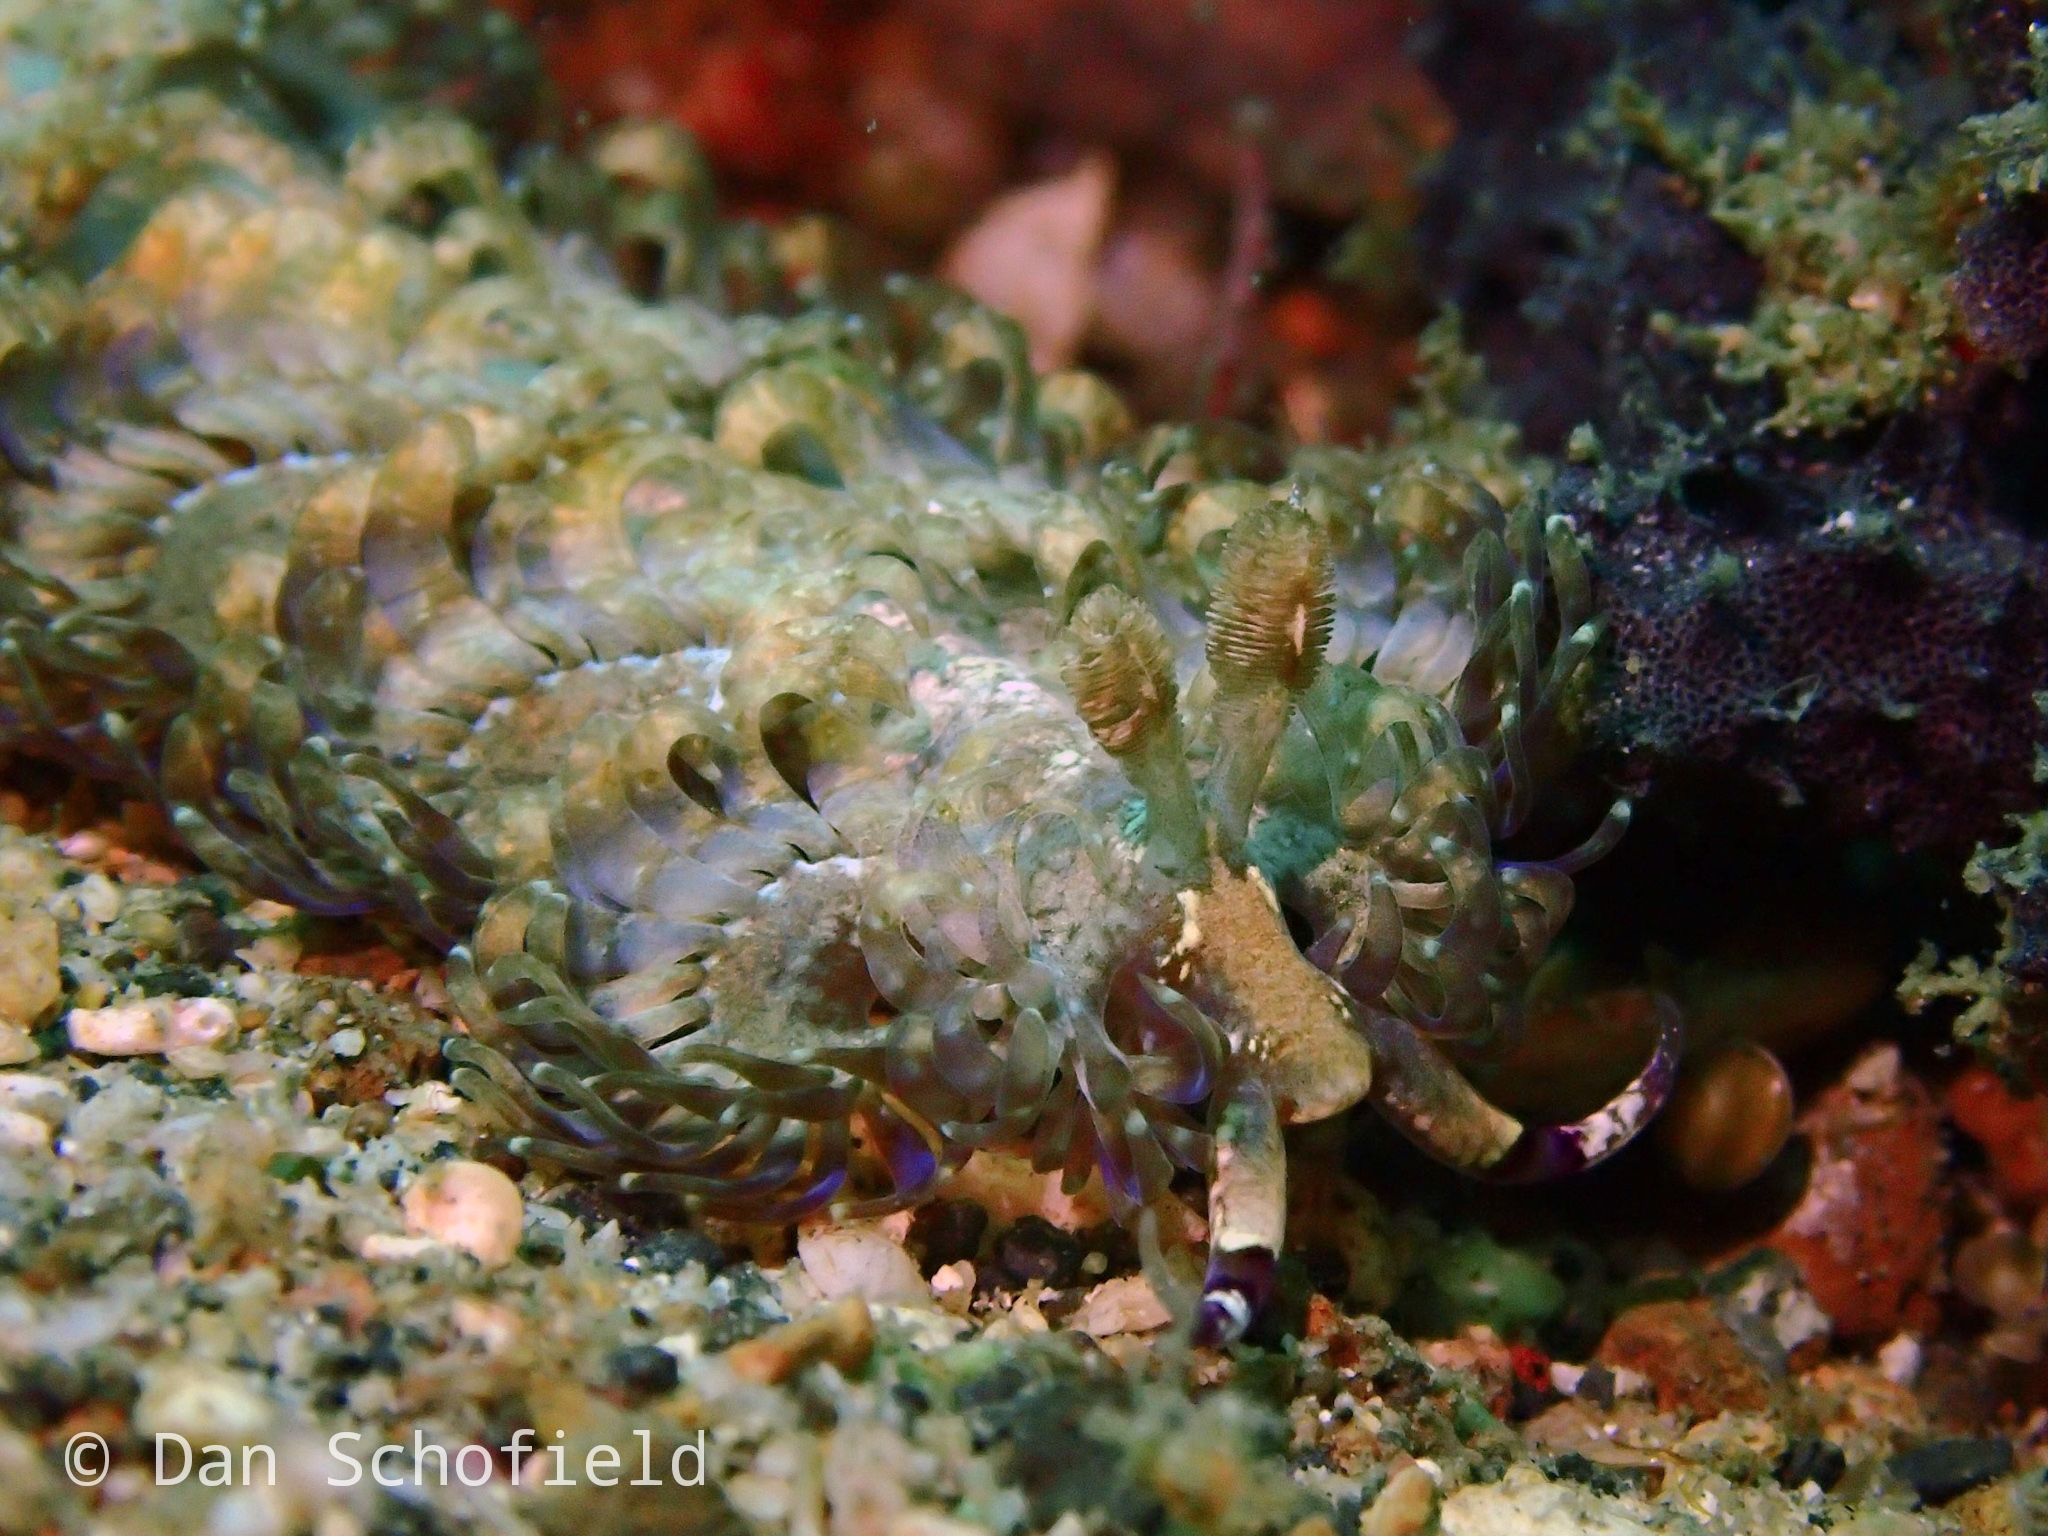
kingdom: Animalia
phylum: Mollusca
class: Gastropoda
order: Nudibranchia
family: Facelinidae
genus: Pteraeolidia
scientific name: Pteraeolidia semperi
